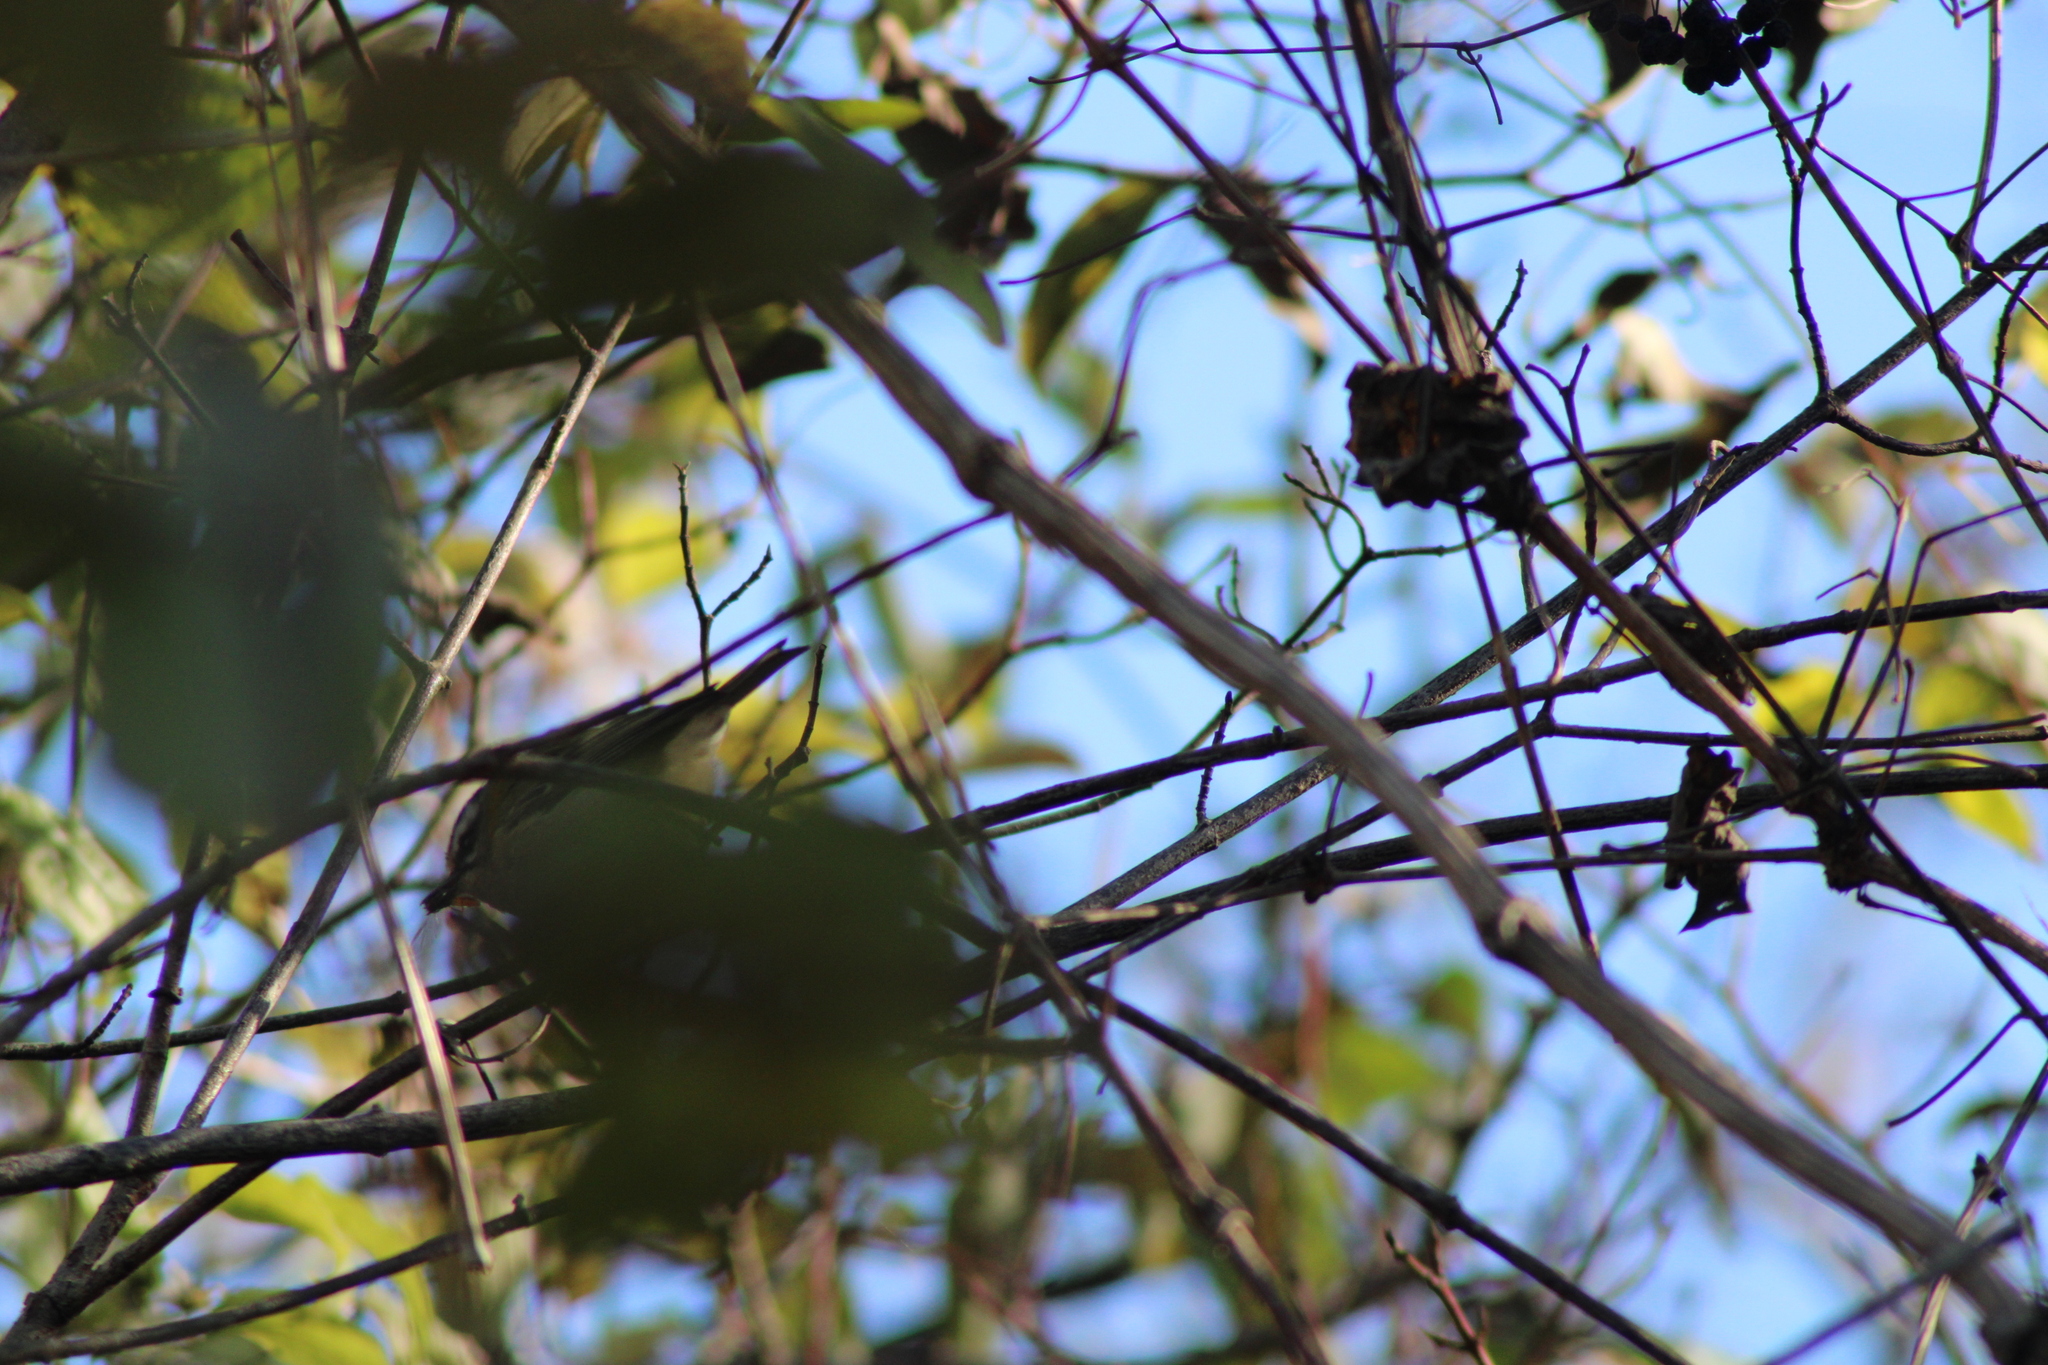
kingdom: Animalia
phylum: Chordata
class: Aves
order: Passeriformes
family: Regulidae
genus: Regulus
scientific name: Regulus ignicapilla
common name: Firecrest
